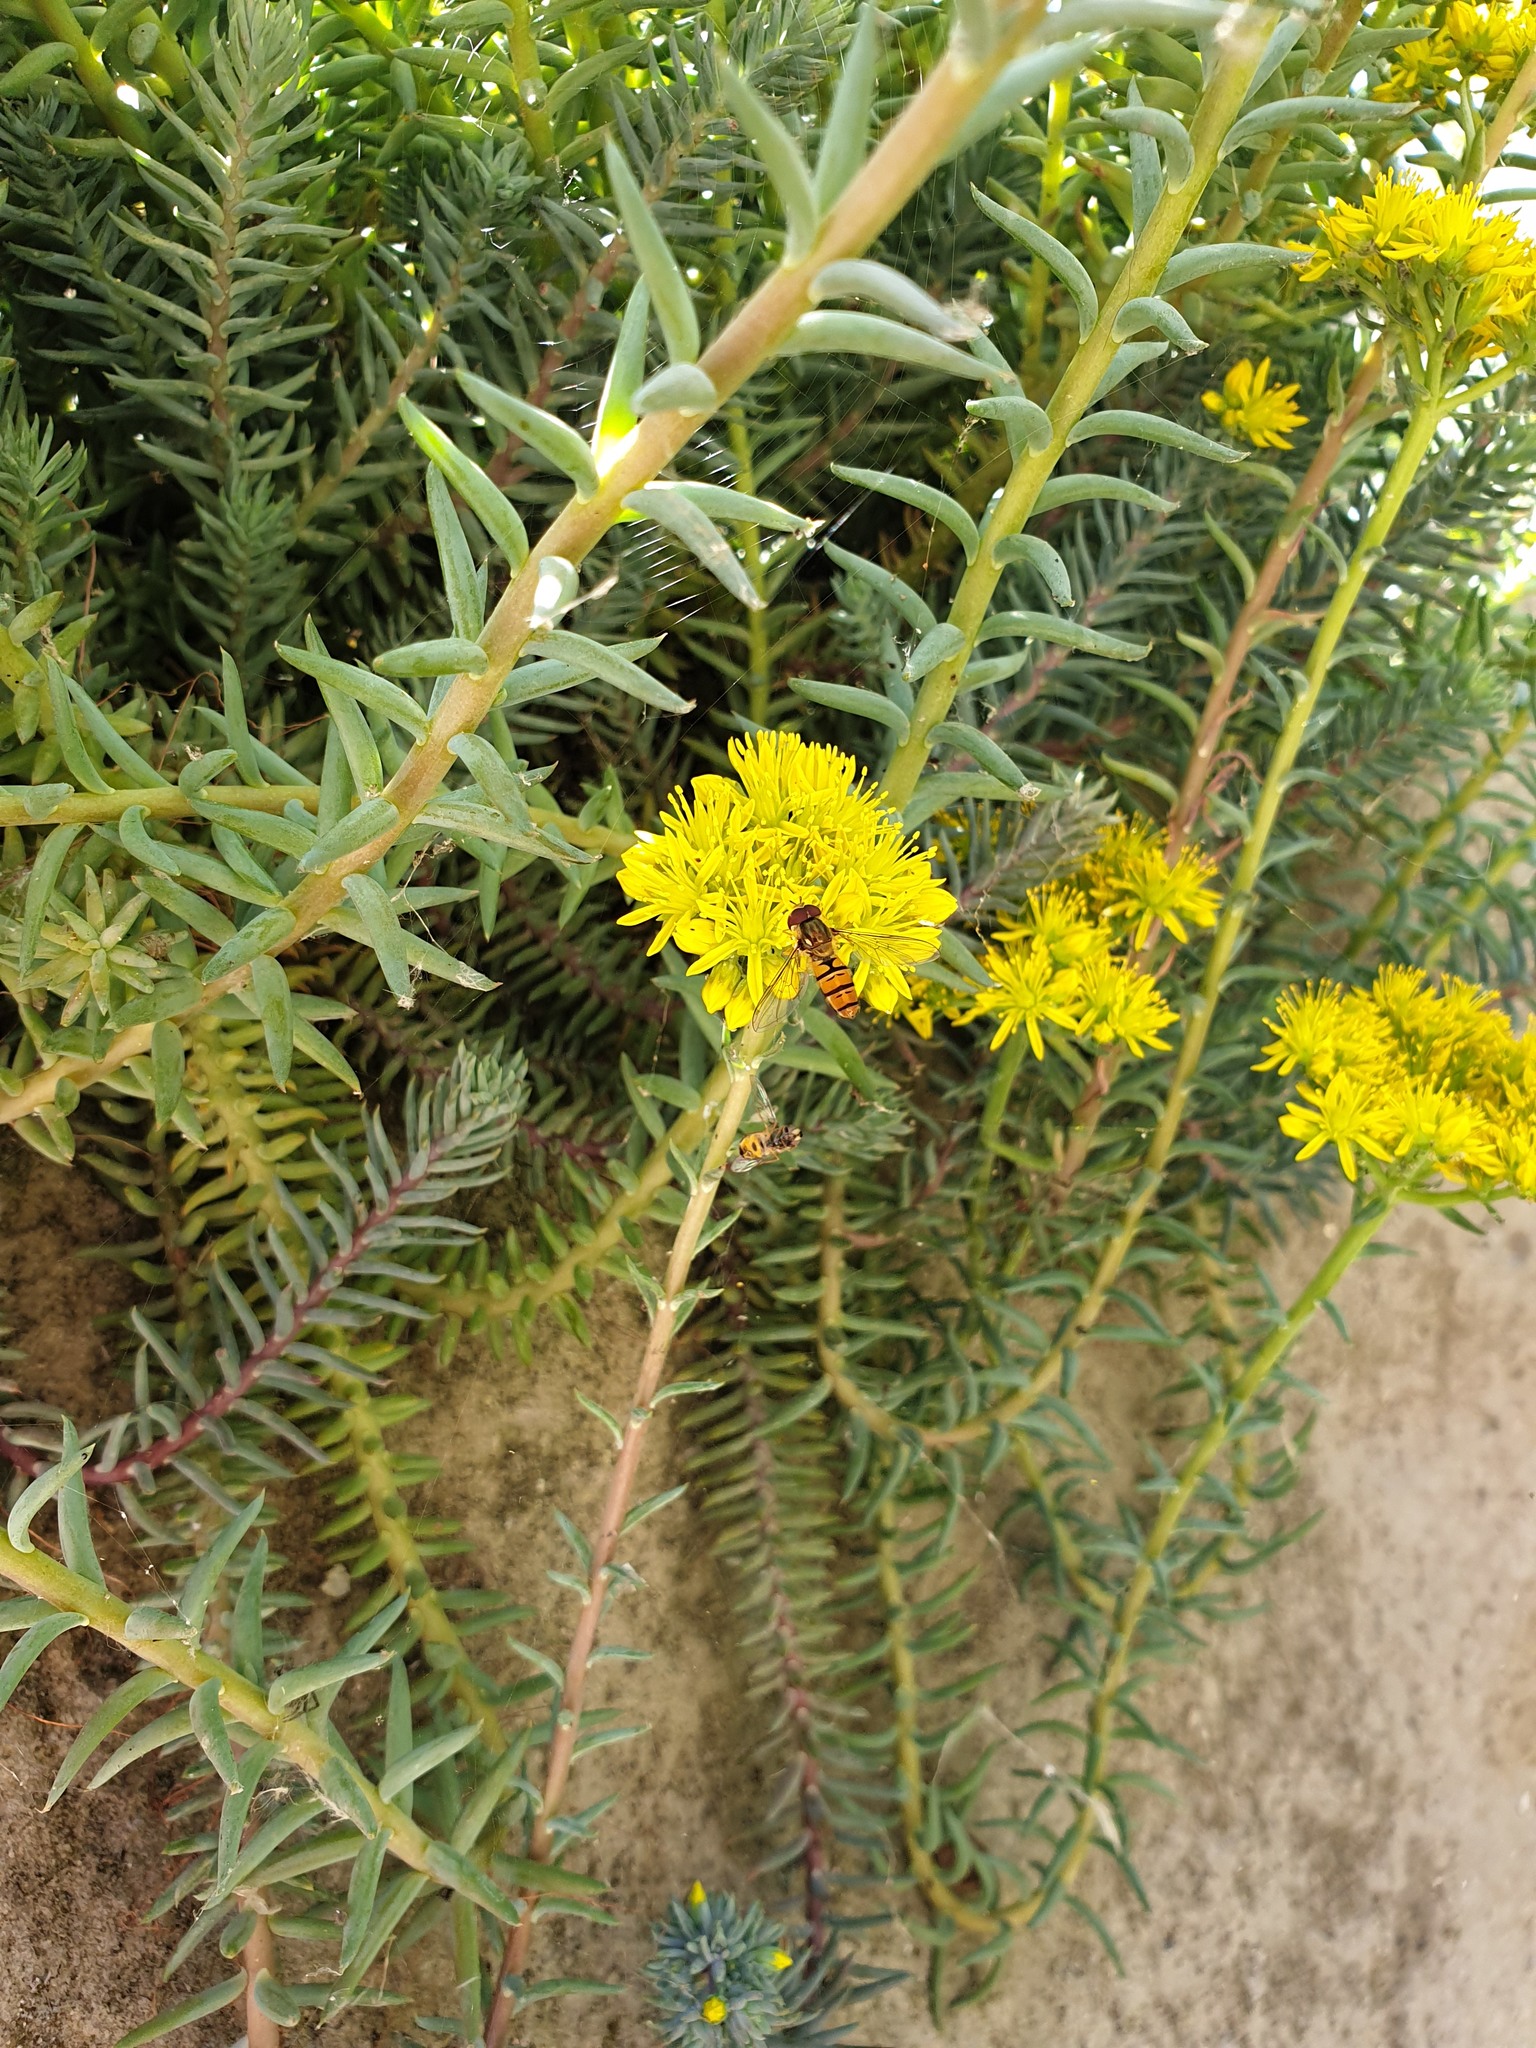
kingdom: Animalia
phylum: Arthropoda
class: Insecta
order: Diptera
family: Syrphidae
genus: Episyrphus
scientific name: Episyrphus balteatus
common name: Marmalade hoverfly
